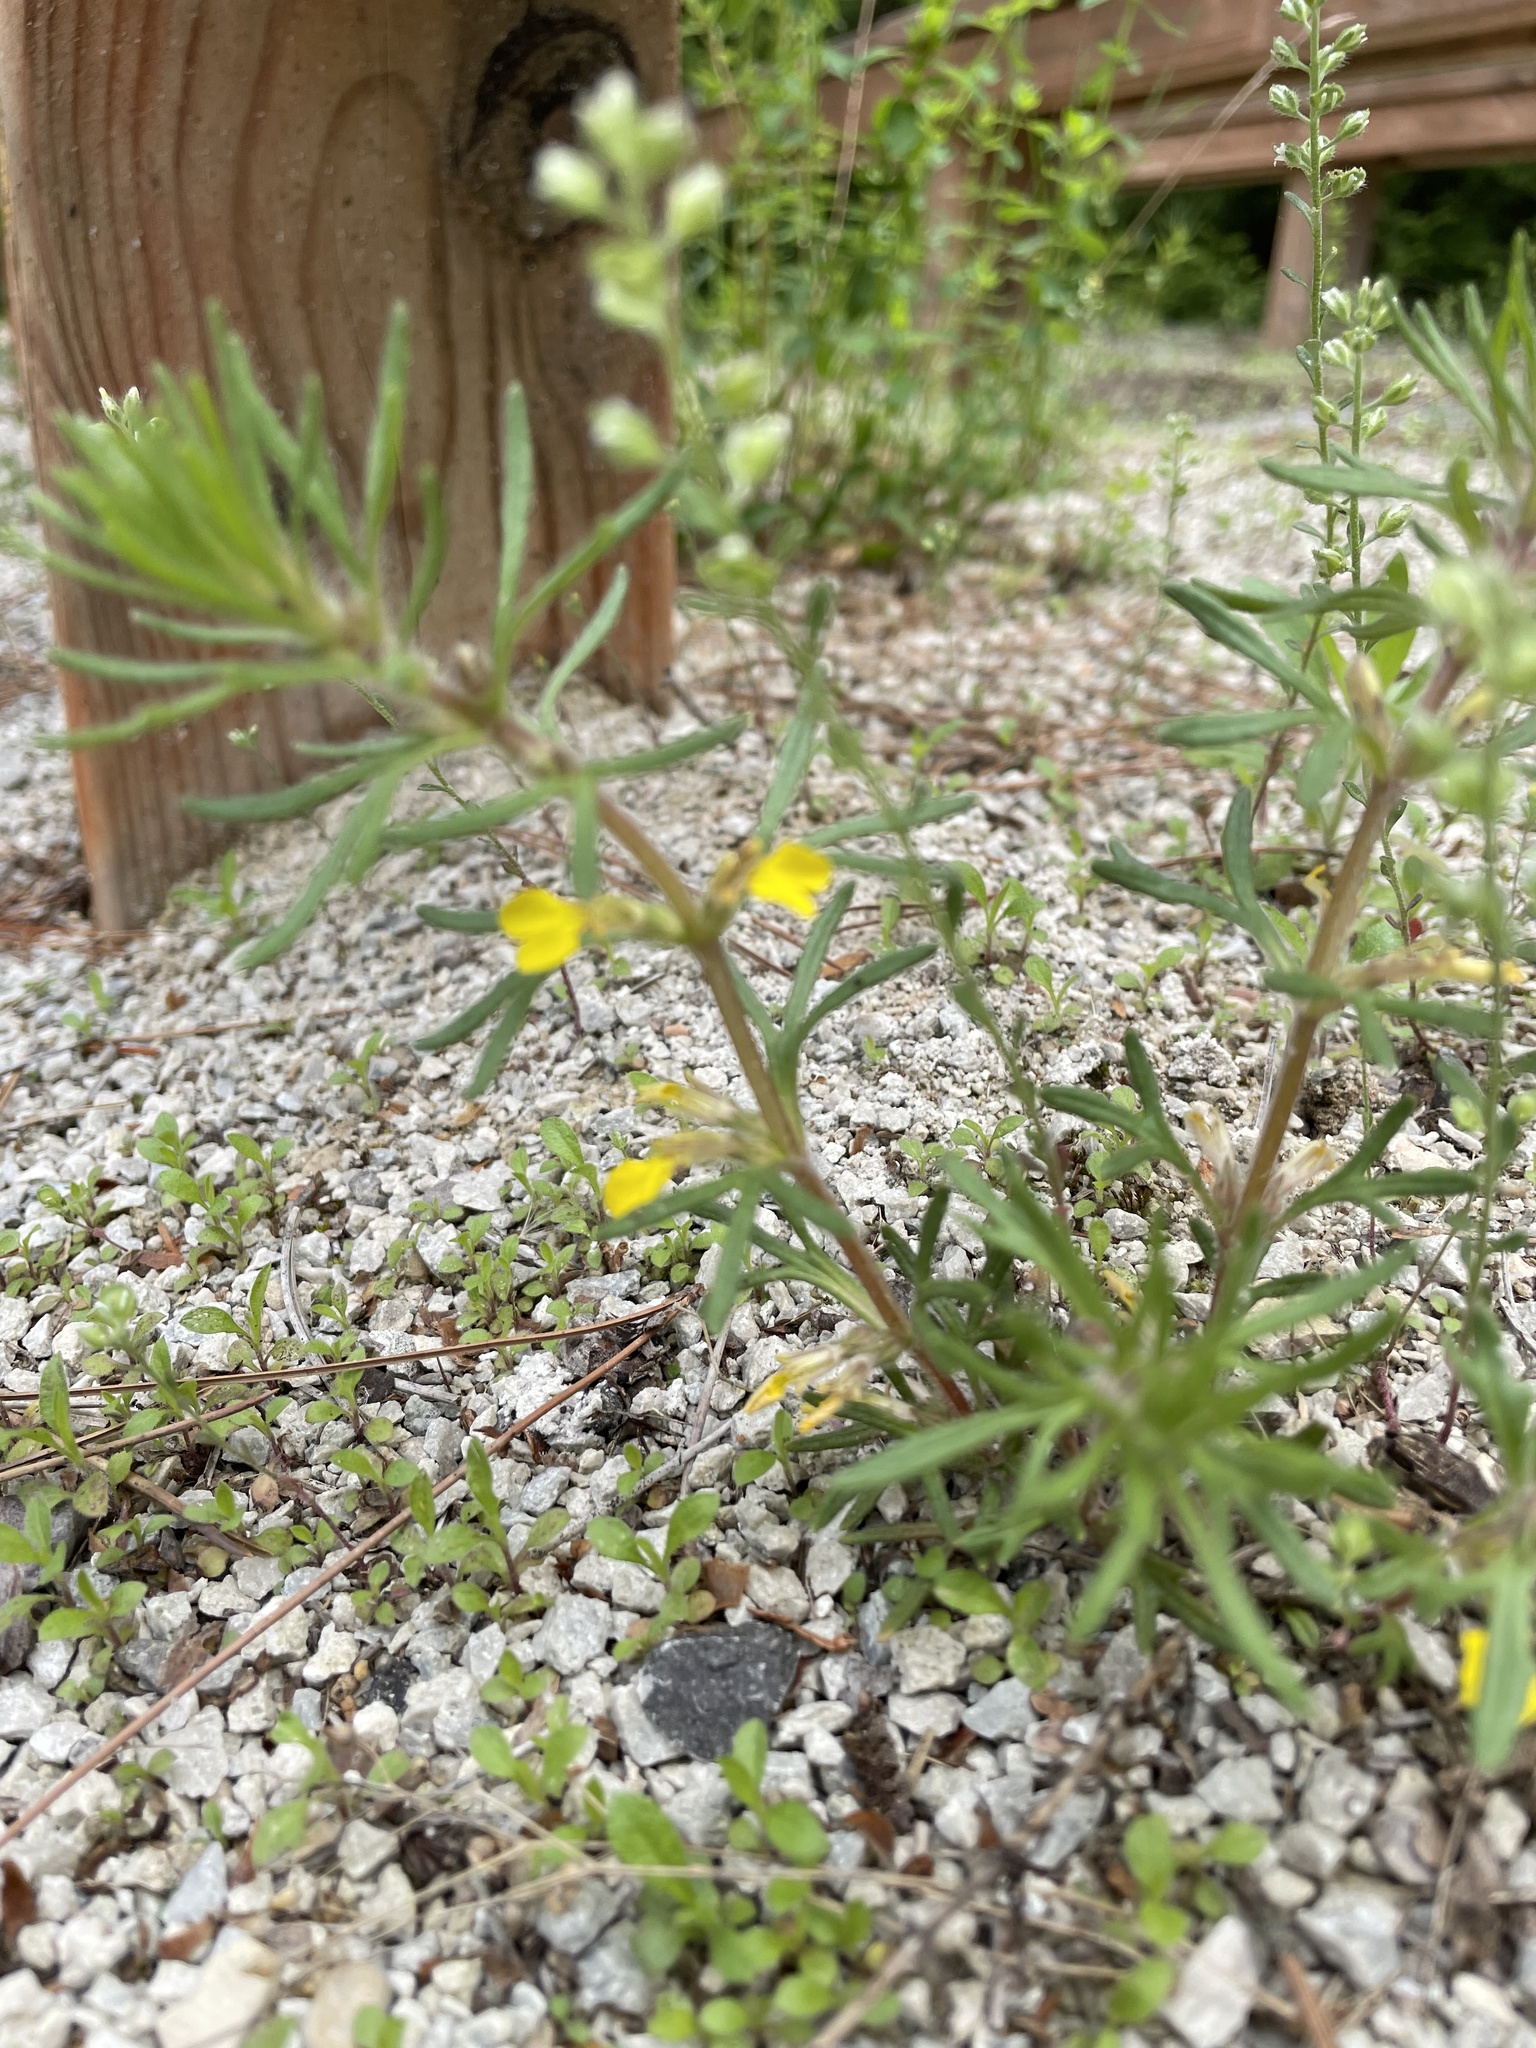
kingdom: Plantae
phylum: Tracheophyta
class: Magnoliopsida
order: Lamiales
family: Lamiaceae
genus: Ajuga
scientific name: Ajuga chamaepitys
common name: Ground-pine
